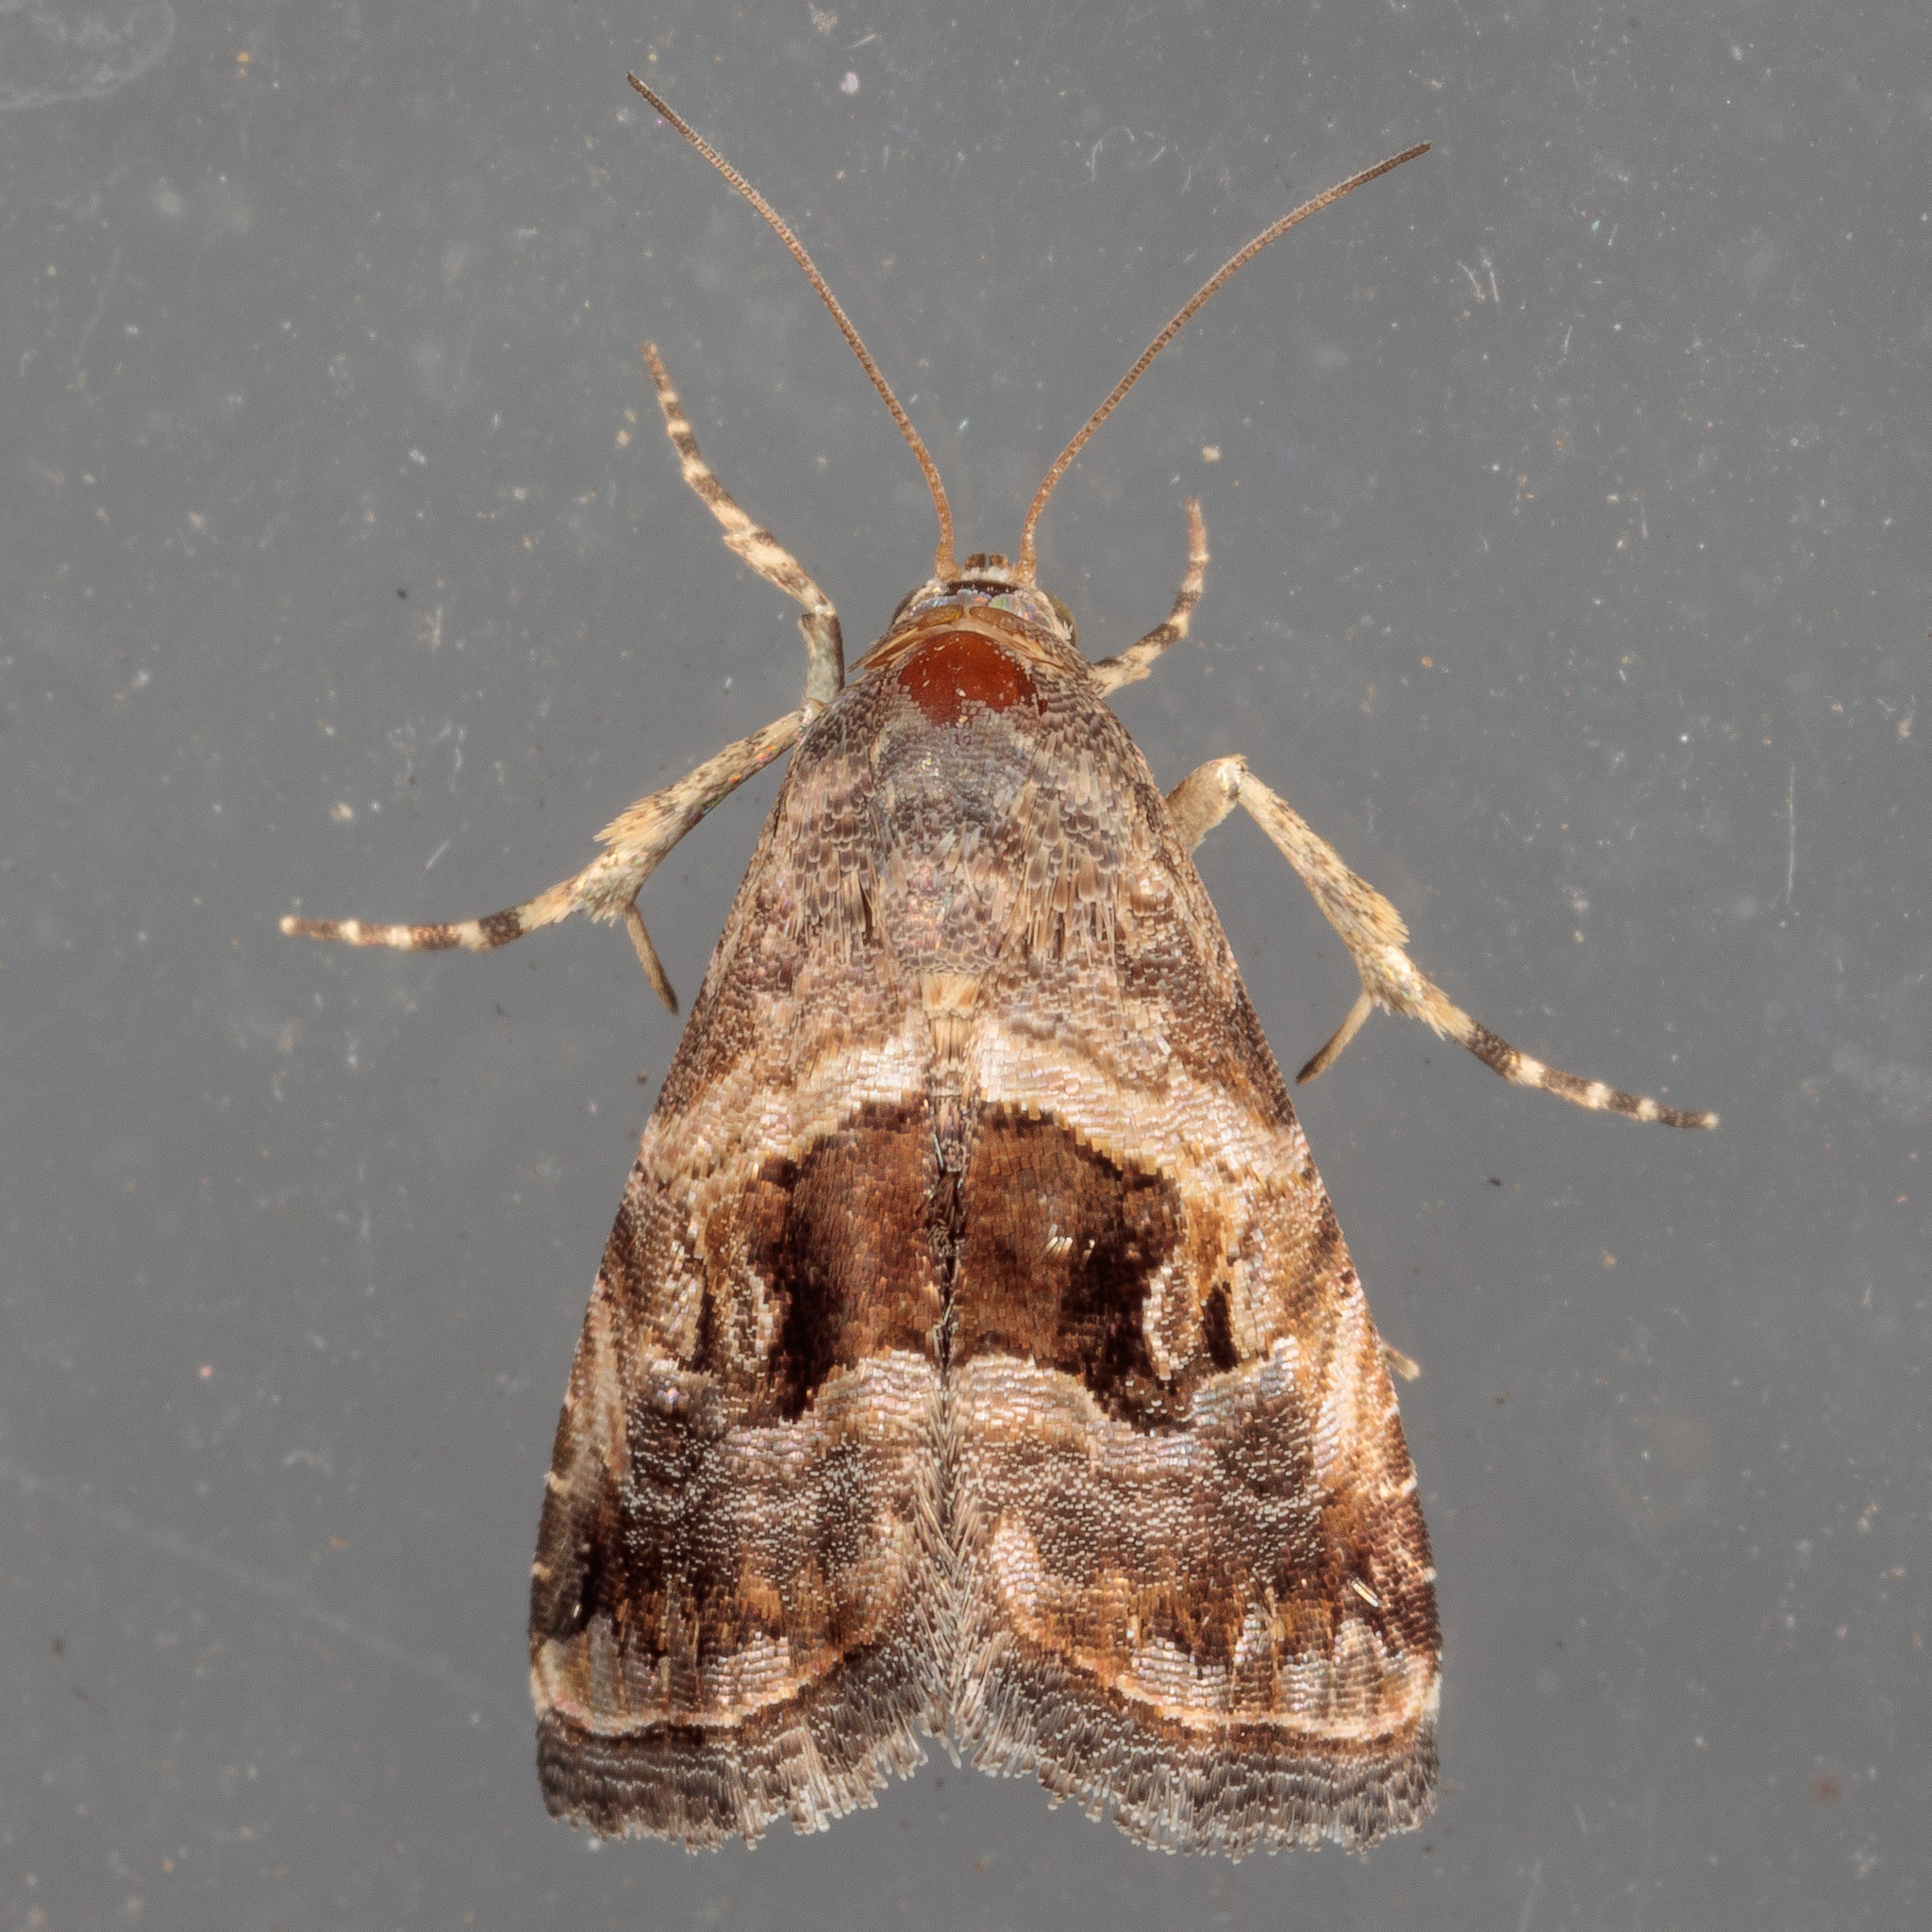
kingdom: Animalia
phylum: Arthropoda
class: Insecta
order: Lepidoptera
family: Noctuidae
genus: Tripudia
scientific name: Tripudia quadrifera
